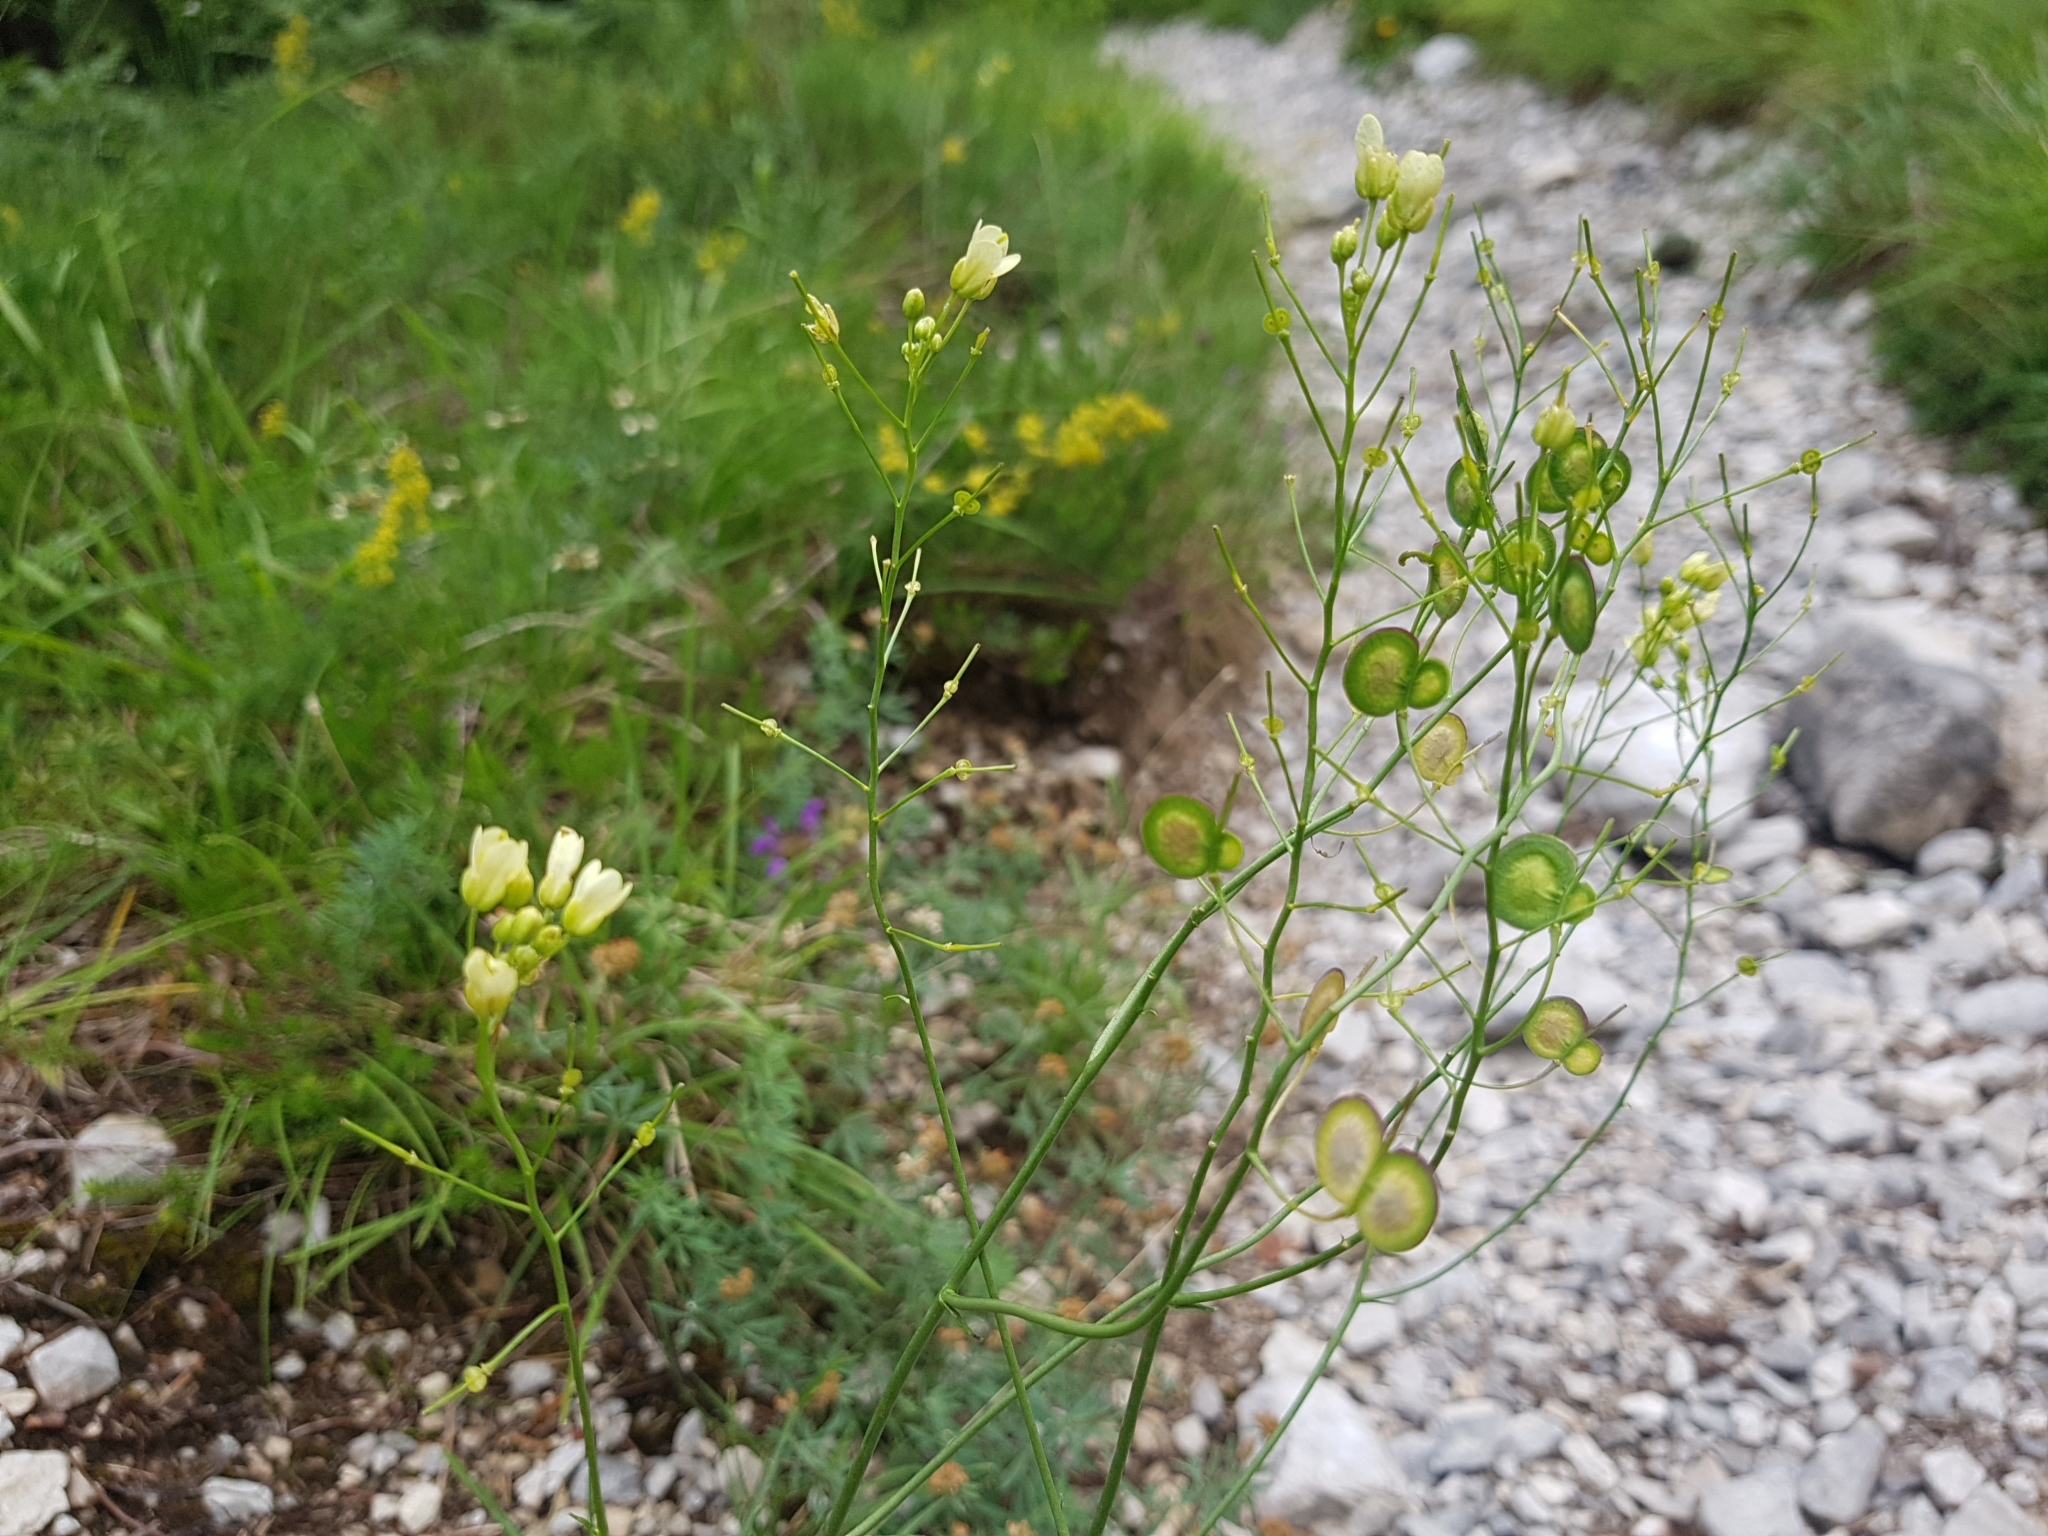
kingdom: Plantae
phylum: Tracheophyta
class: Magnoliopsida
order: Brassicales
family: Brassicaceae
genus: Biscutella
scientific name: Biscutella laevigata
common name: Buckler mustard
